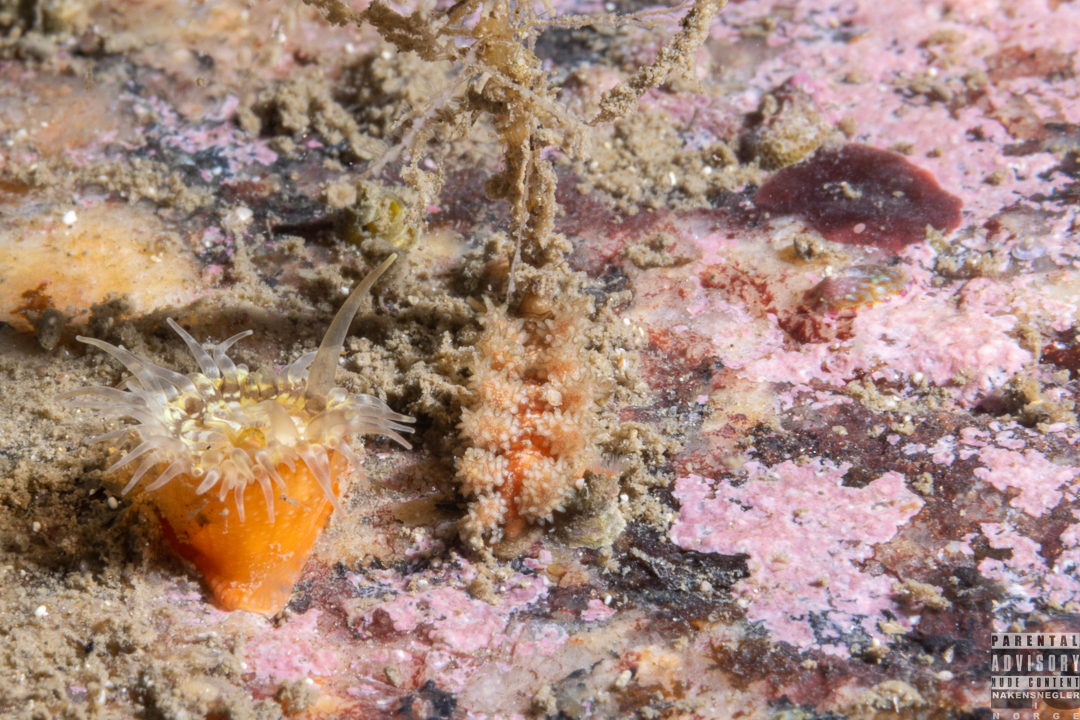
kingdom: Animalia
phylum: Mollusca
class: Gastropoda
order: Nudibranchia
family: Dotidae
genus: Doto
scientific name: Doto hystrix
